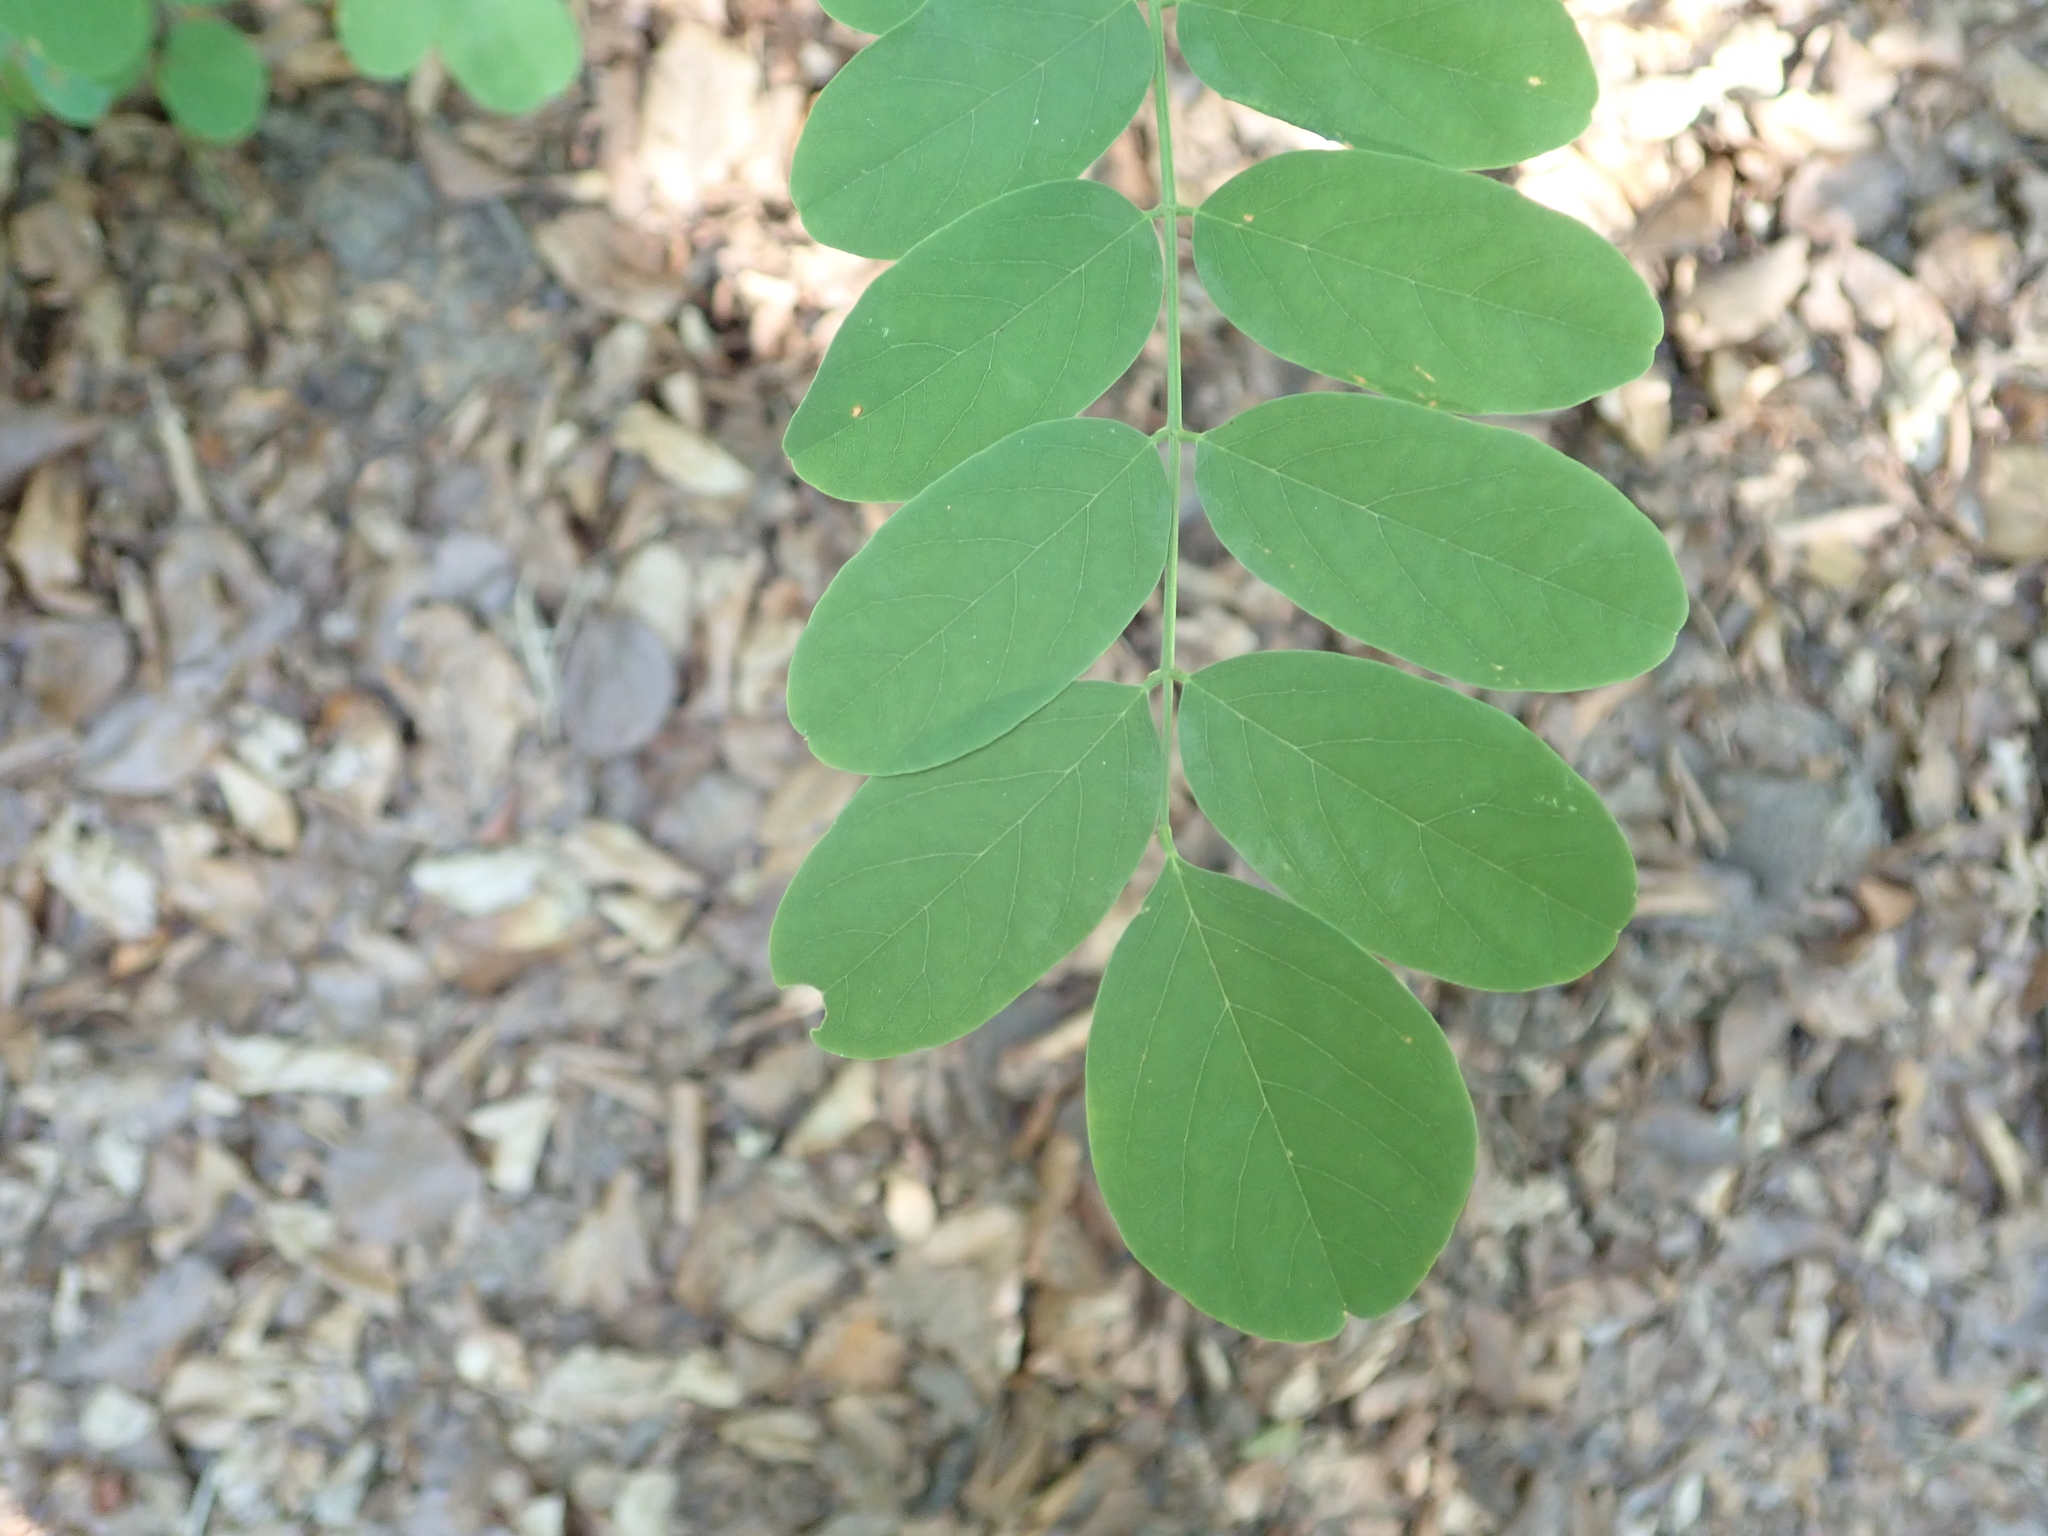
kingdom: Plantae
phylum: Tracheophyta
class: Magnoliopsida
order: Fabales
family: Fabaceae
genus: Robinia
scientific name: Robinia pseudoacacia
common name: Black locust
